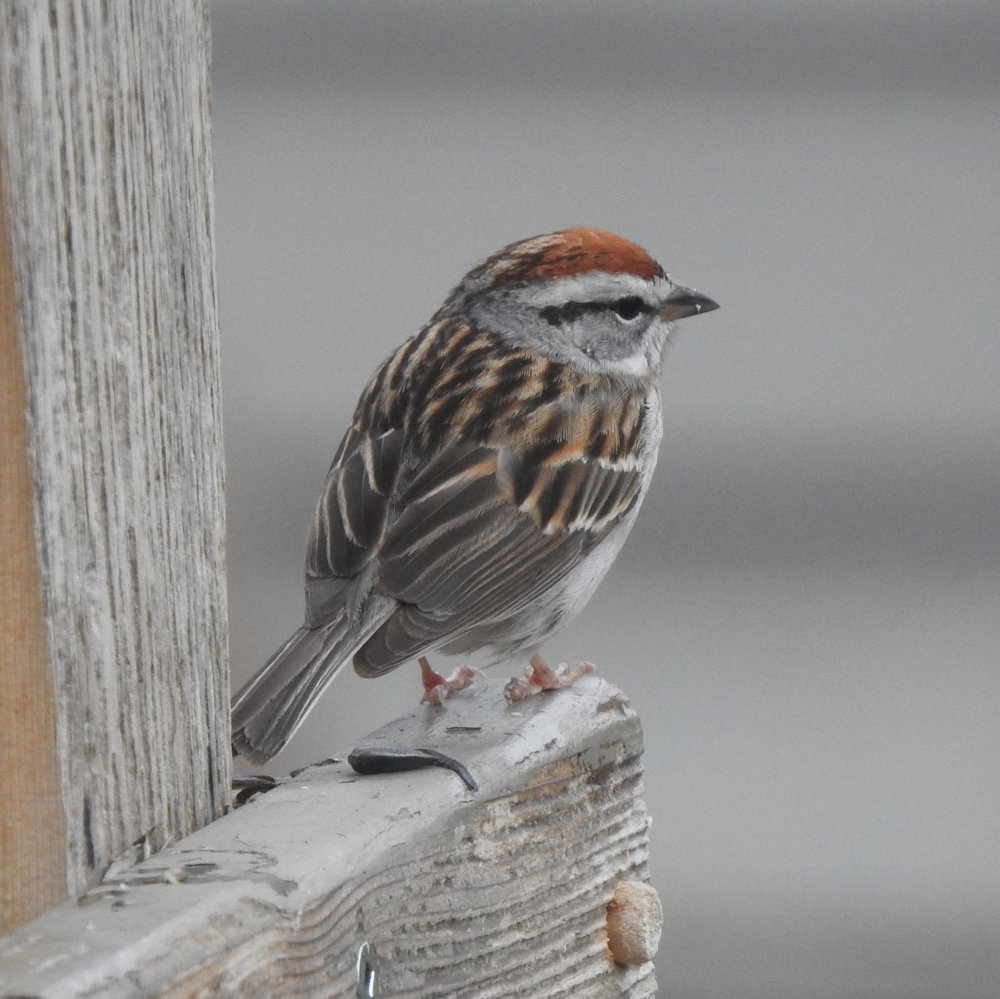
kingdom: Animalia
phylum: Chordata
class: Aves
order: Passeriformes
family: Passerellidae
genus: Spizella
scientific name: Spizella passerina
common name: Chipping sparrow
